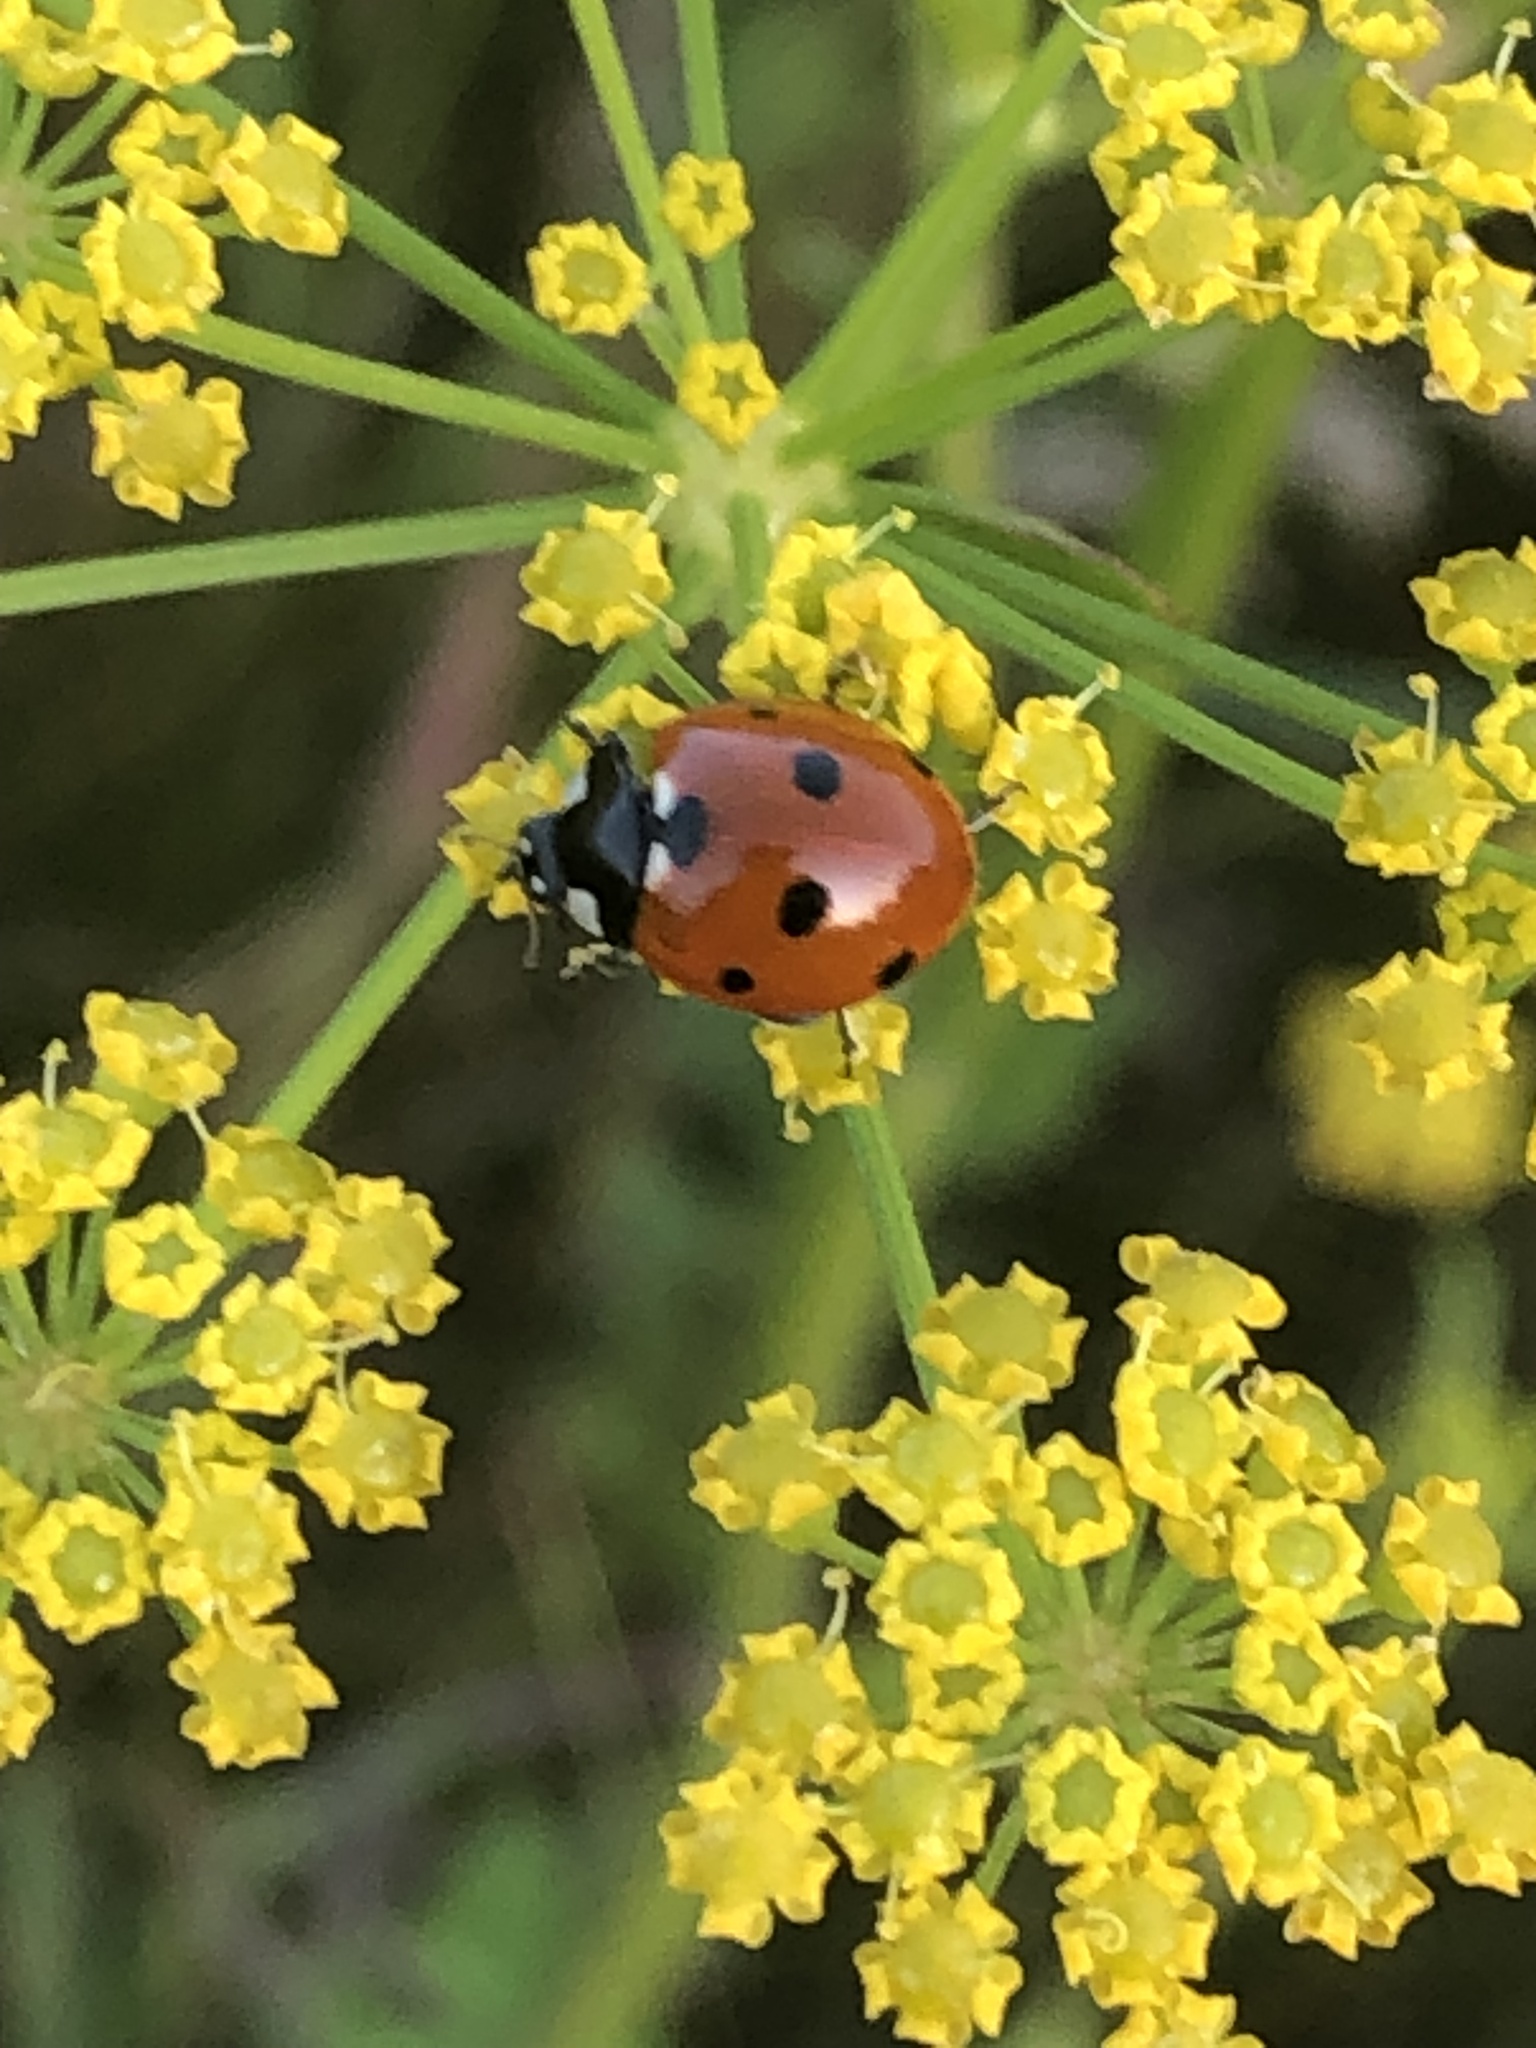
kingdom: Animalia
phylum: Arthropoda
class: Insecta
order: Coleoptera
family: Coccinellidae
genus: Coccinella
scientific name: Coccinella septempunctata
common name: Sevenspotted lady beetle
